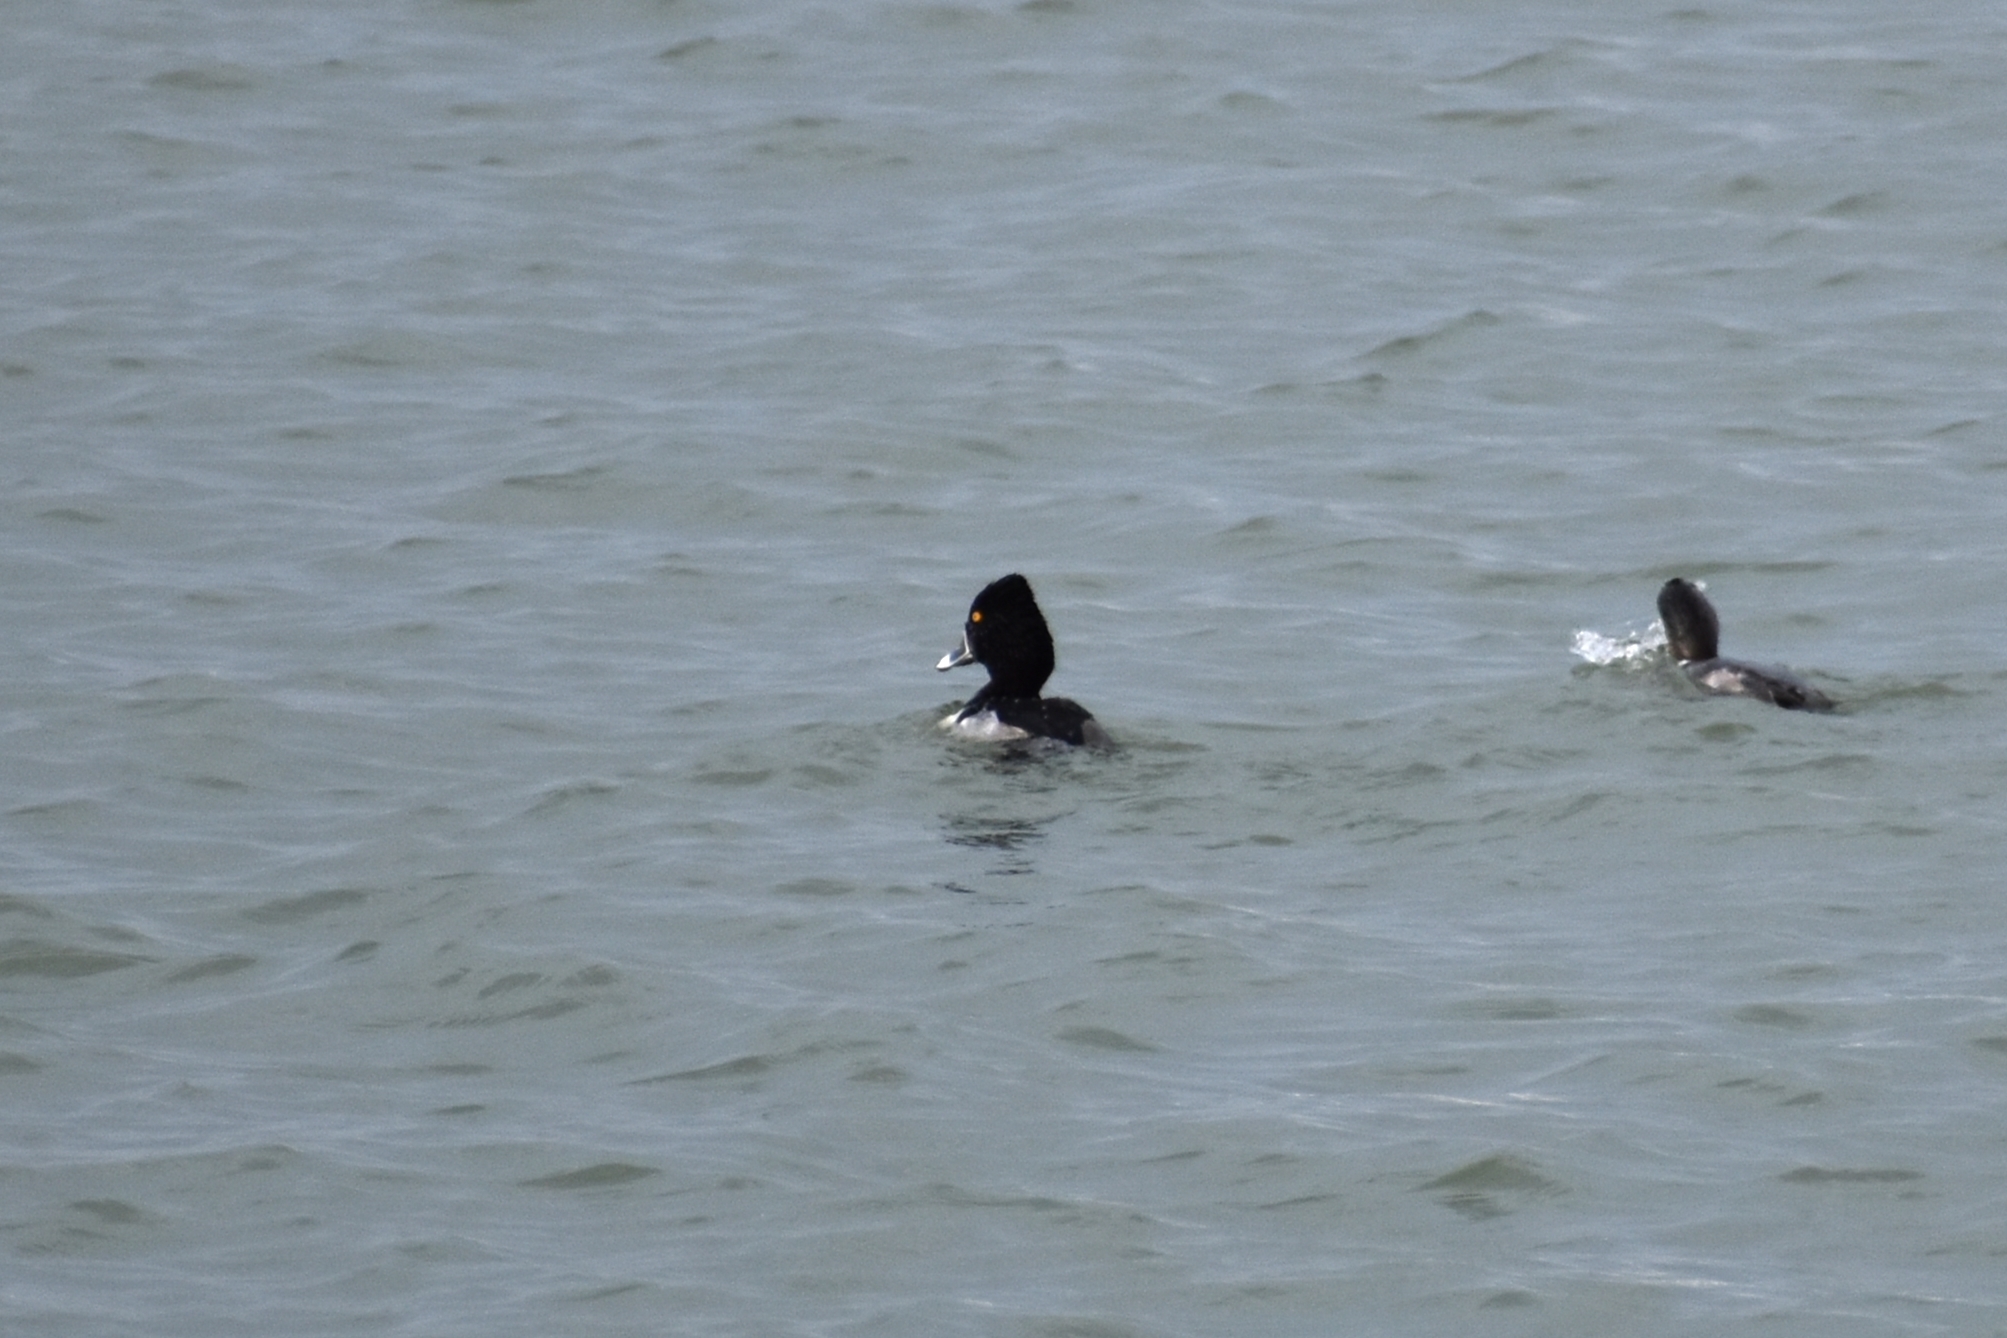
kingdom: Animalia
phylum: Chordata
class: Aves
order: Anseriformes
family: Anatidae
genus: Aythya
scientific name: Aythya collaris
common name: Ring-necked duck
